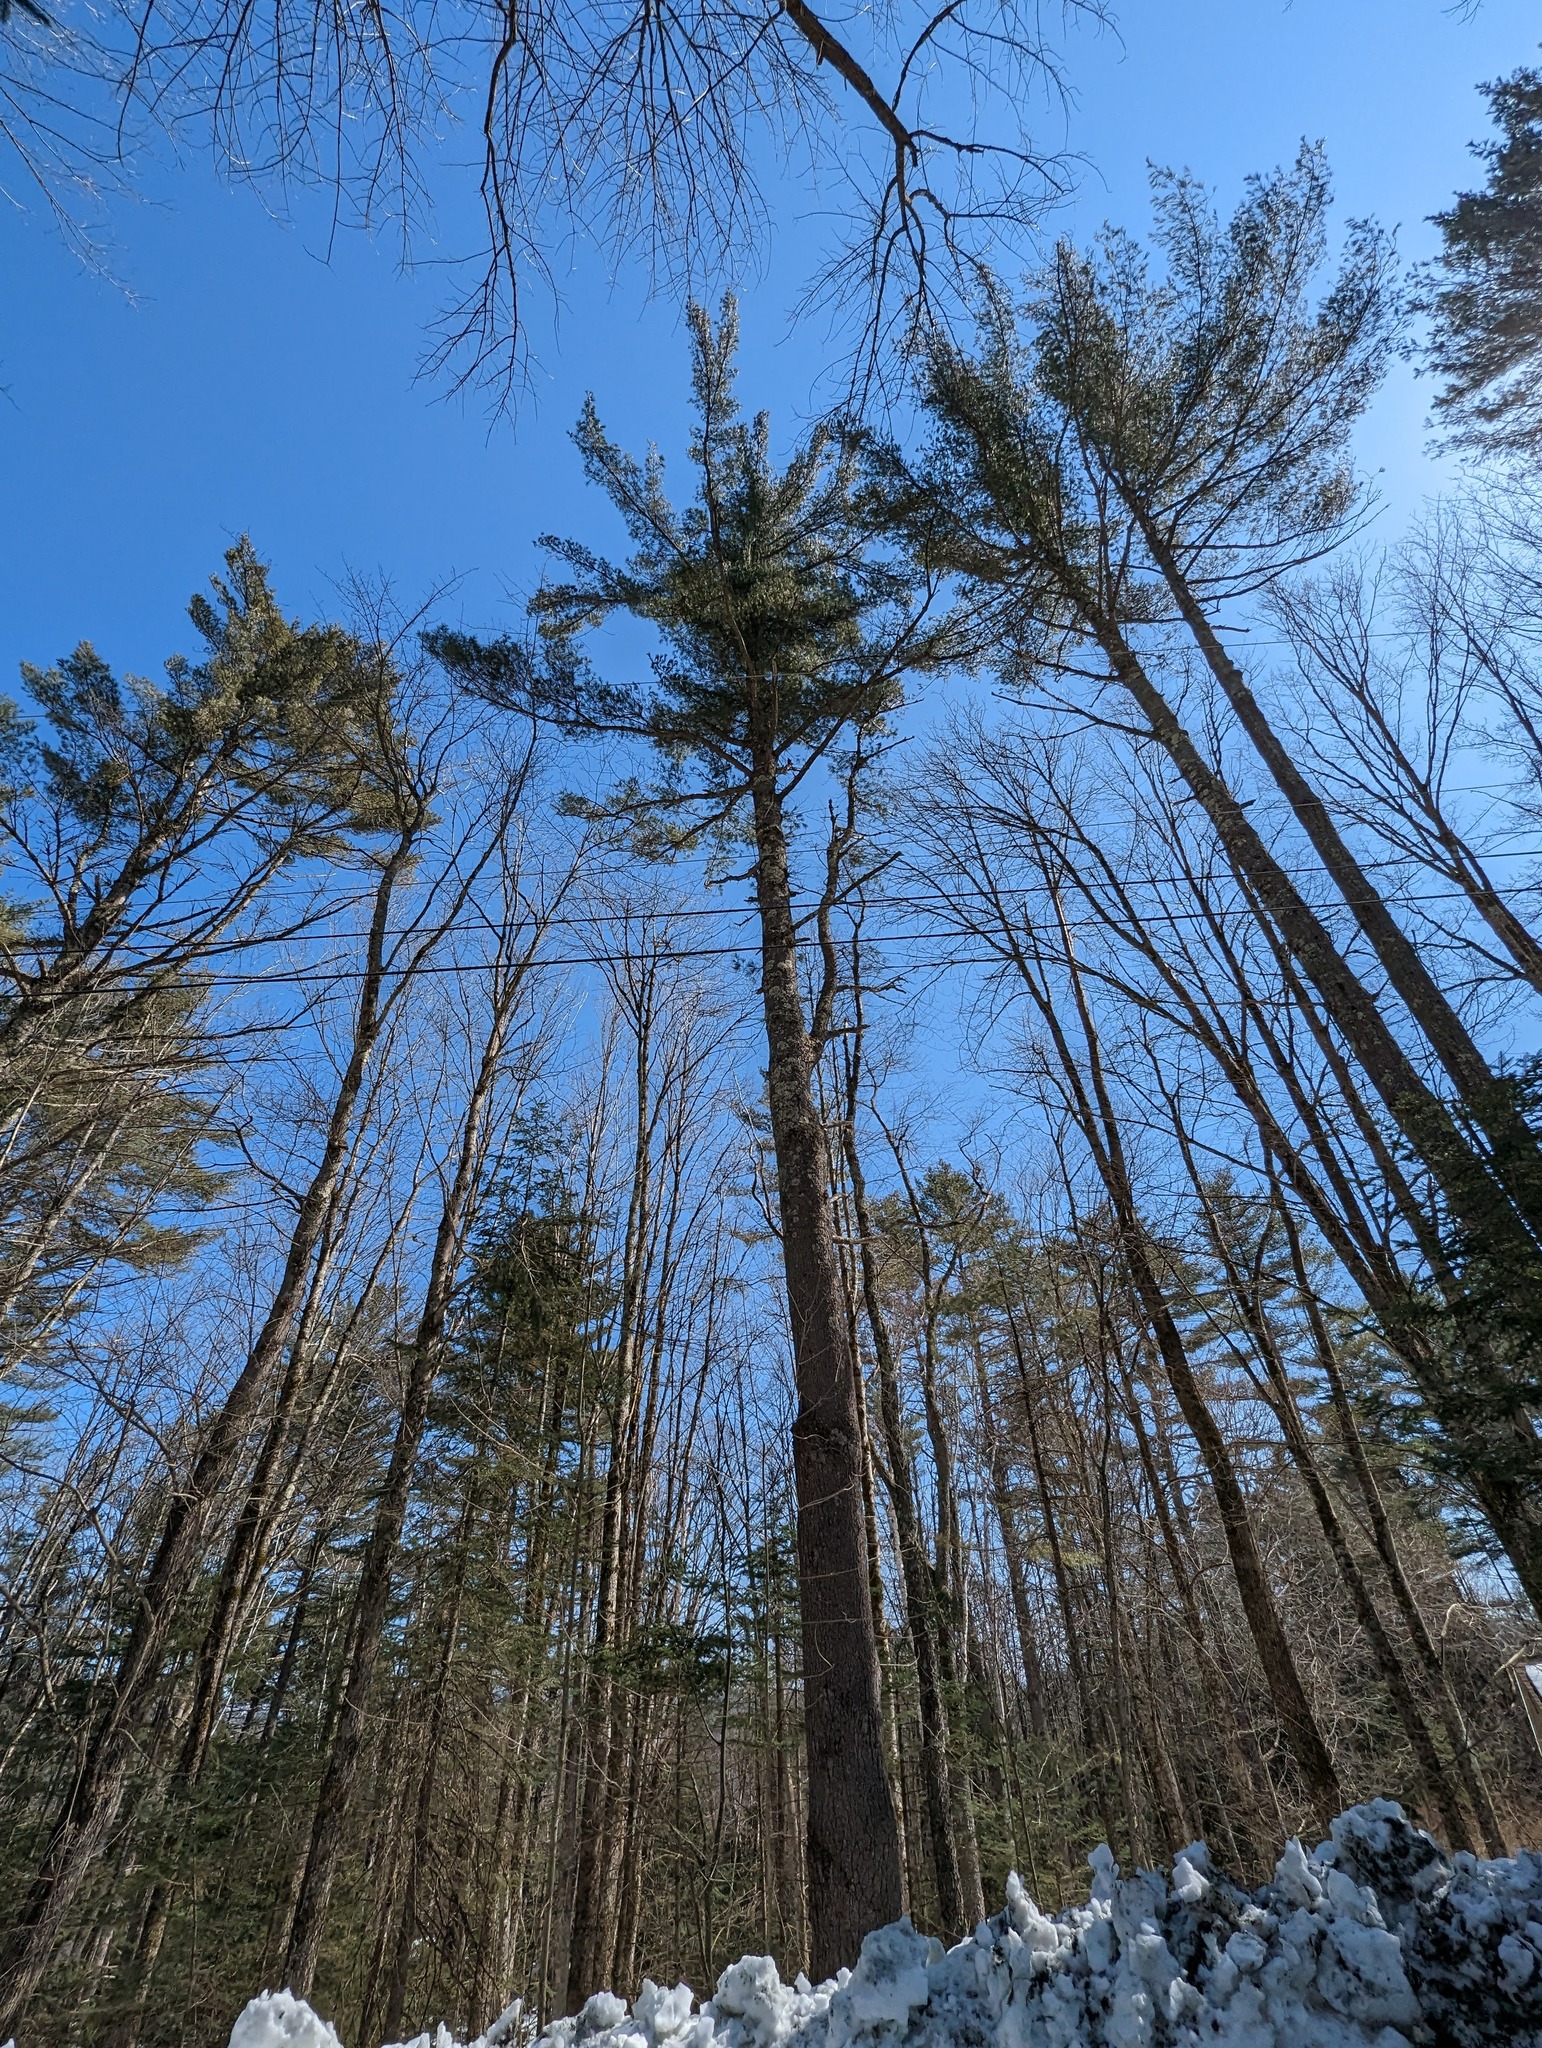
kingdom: Plantae
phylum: Tracheophyta
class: Pinopsida
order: Pinales
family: Pinaceae
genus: Pinus
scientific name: Pinus strobus
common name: Weymouth pine
